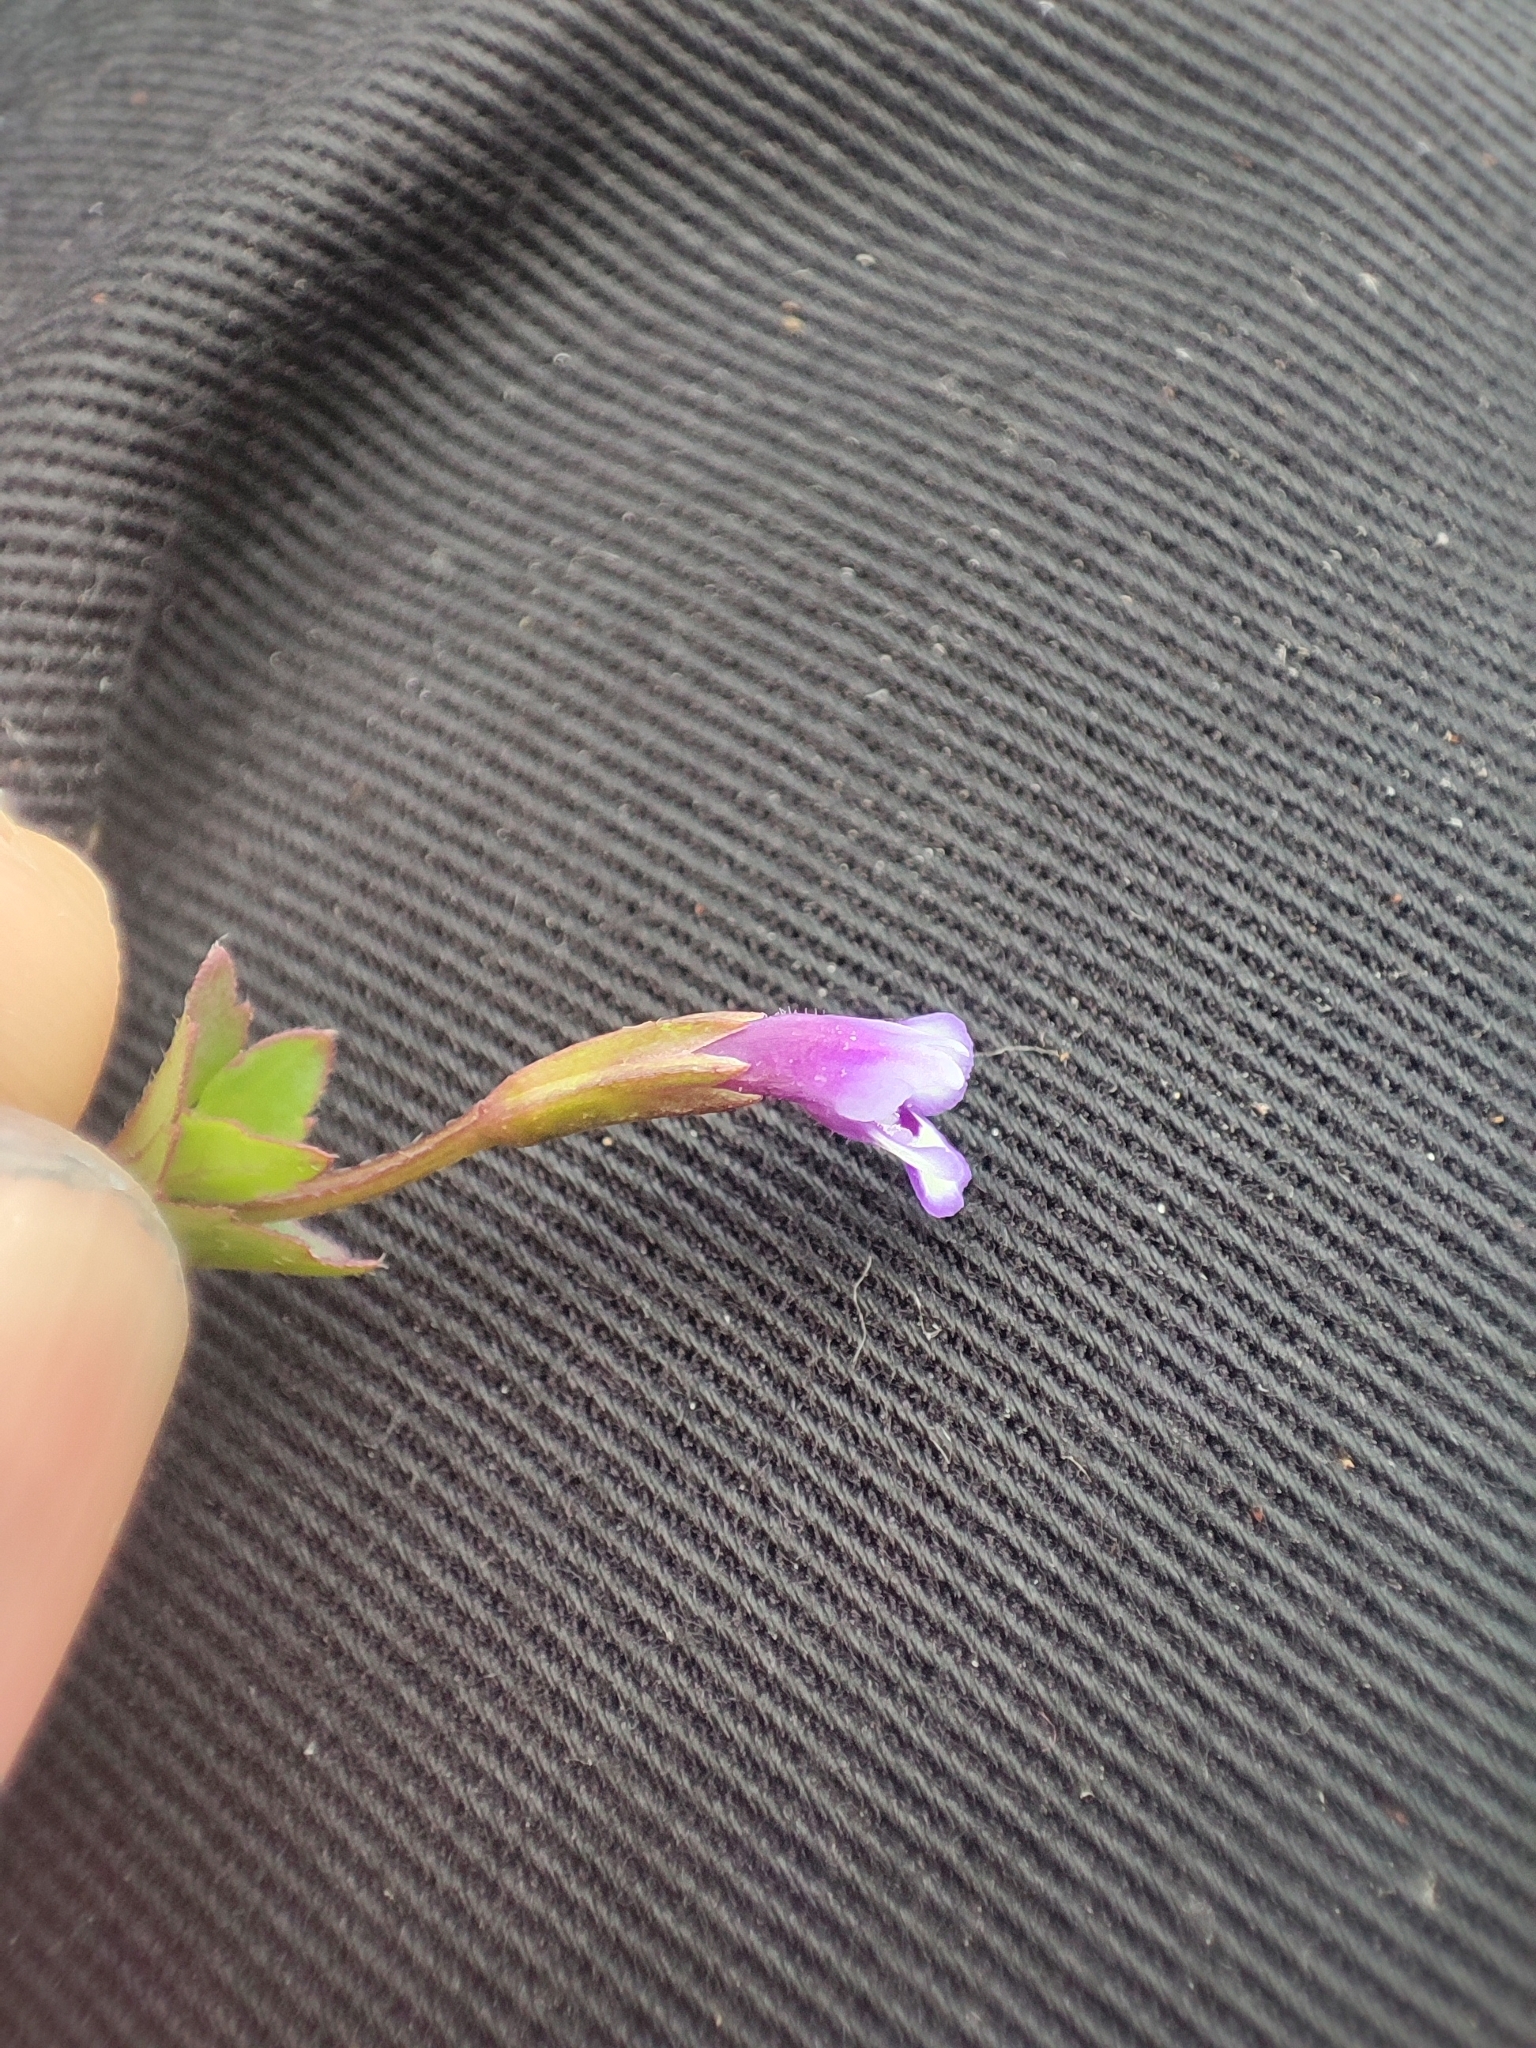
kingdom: Plantae
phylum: Tracheophyta
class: Magnoliopsida
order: Lamiales
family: Linderniaceae
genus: Torenia
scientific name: Torenia crustacea
